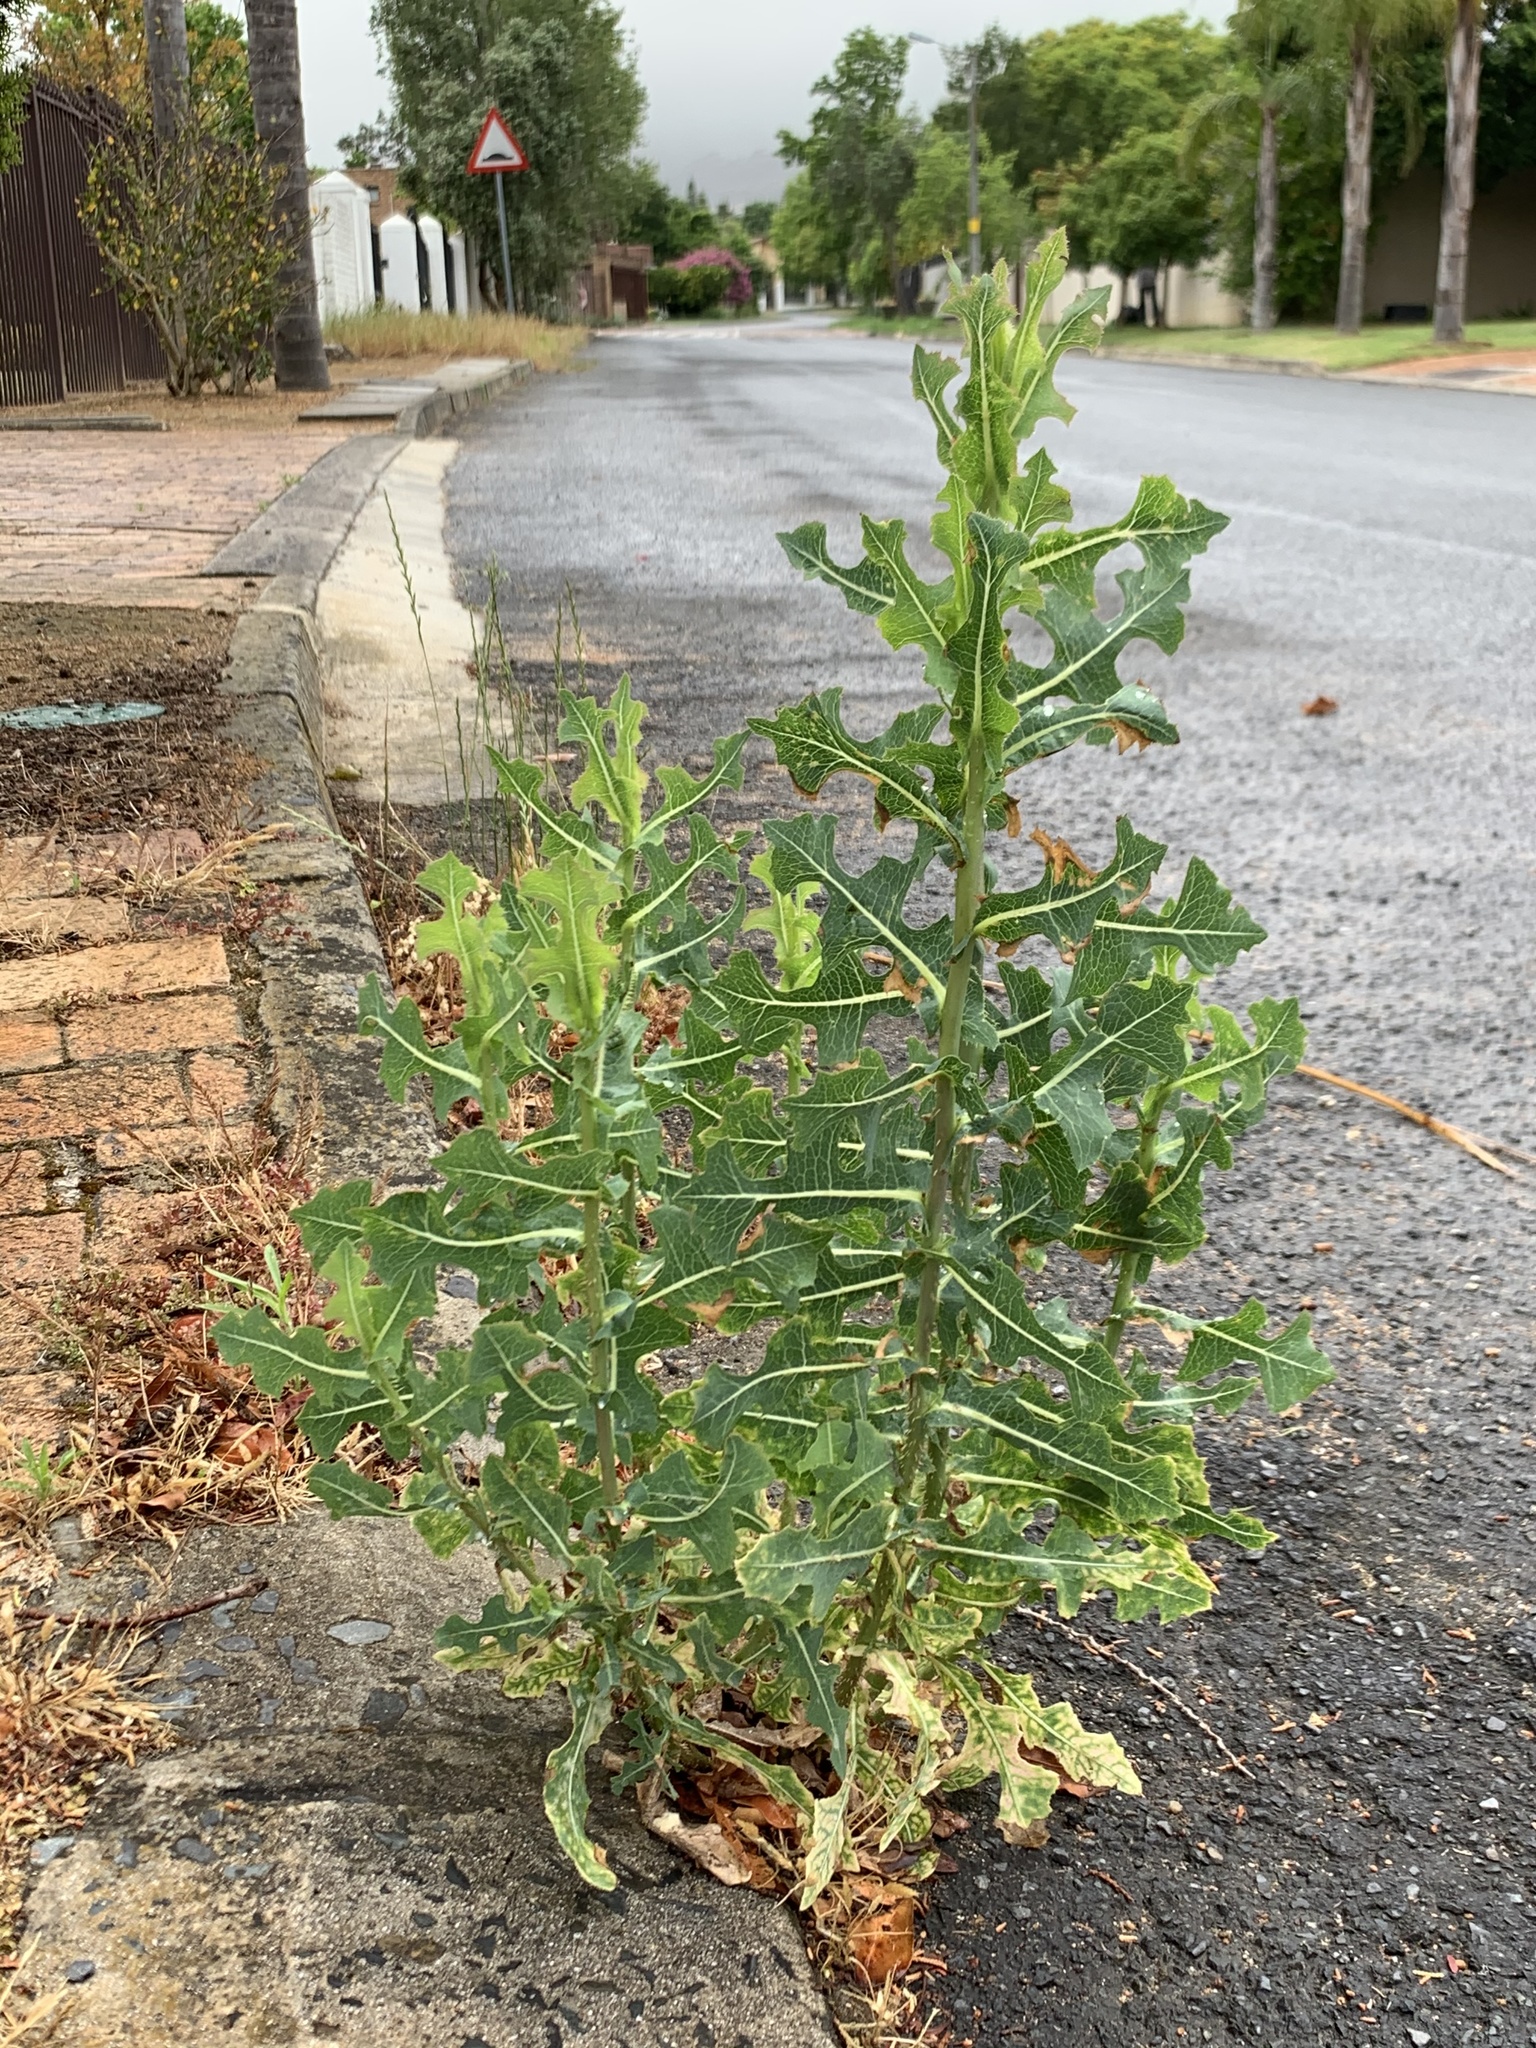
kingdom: Plantae
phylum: Tracheophyta
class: Magnoliopsida
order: Asterales
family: Asteraceae
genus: Lactuca
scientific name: Lactuca serriola
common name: Prickly lettuce
